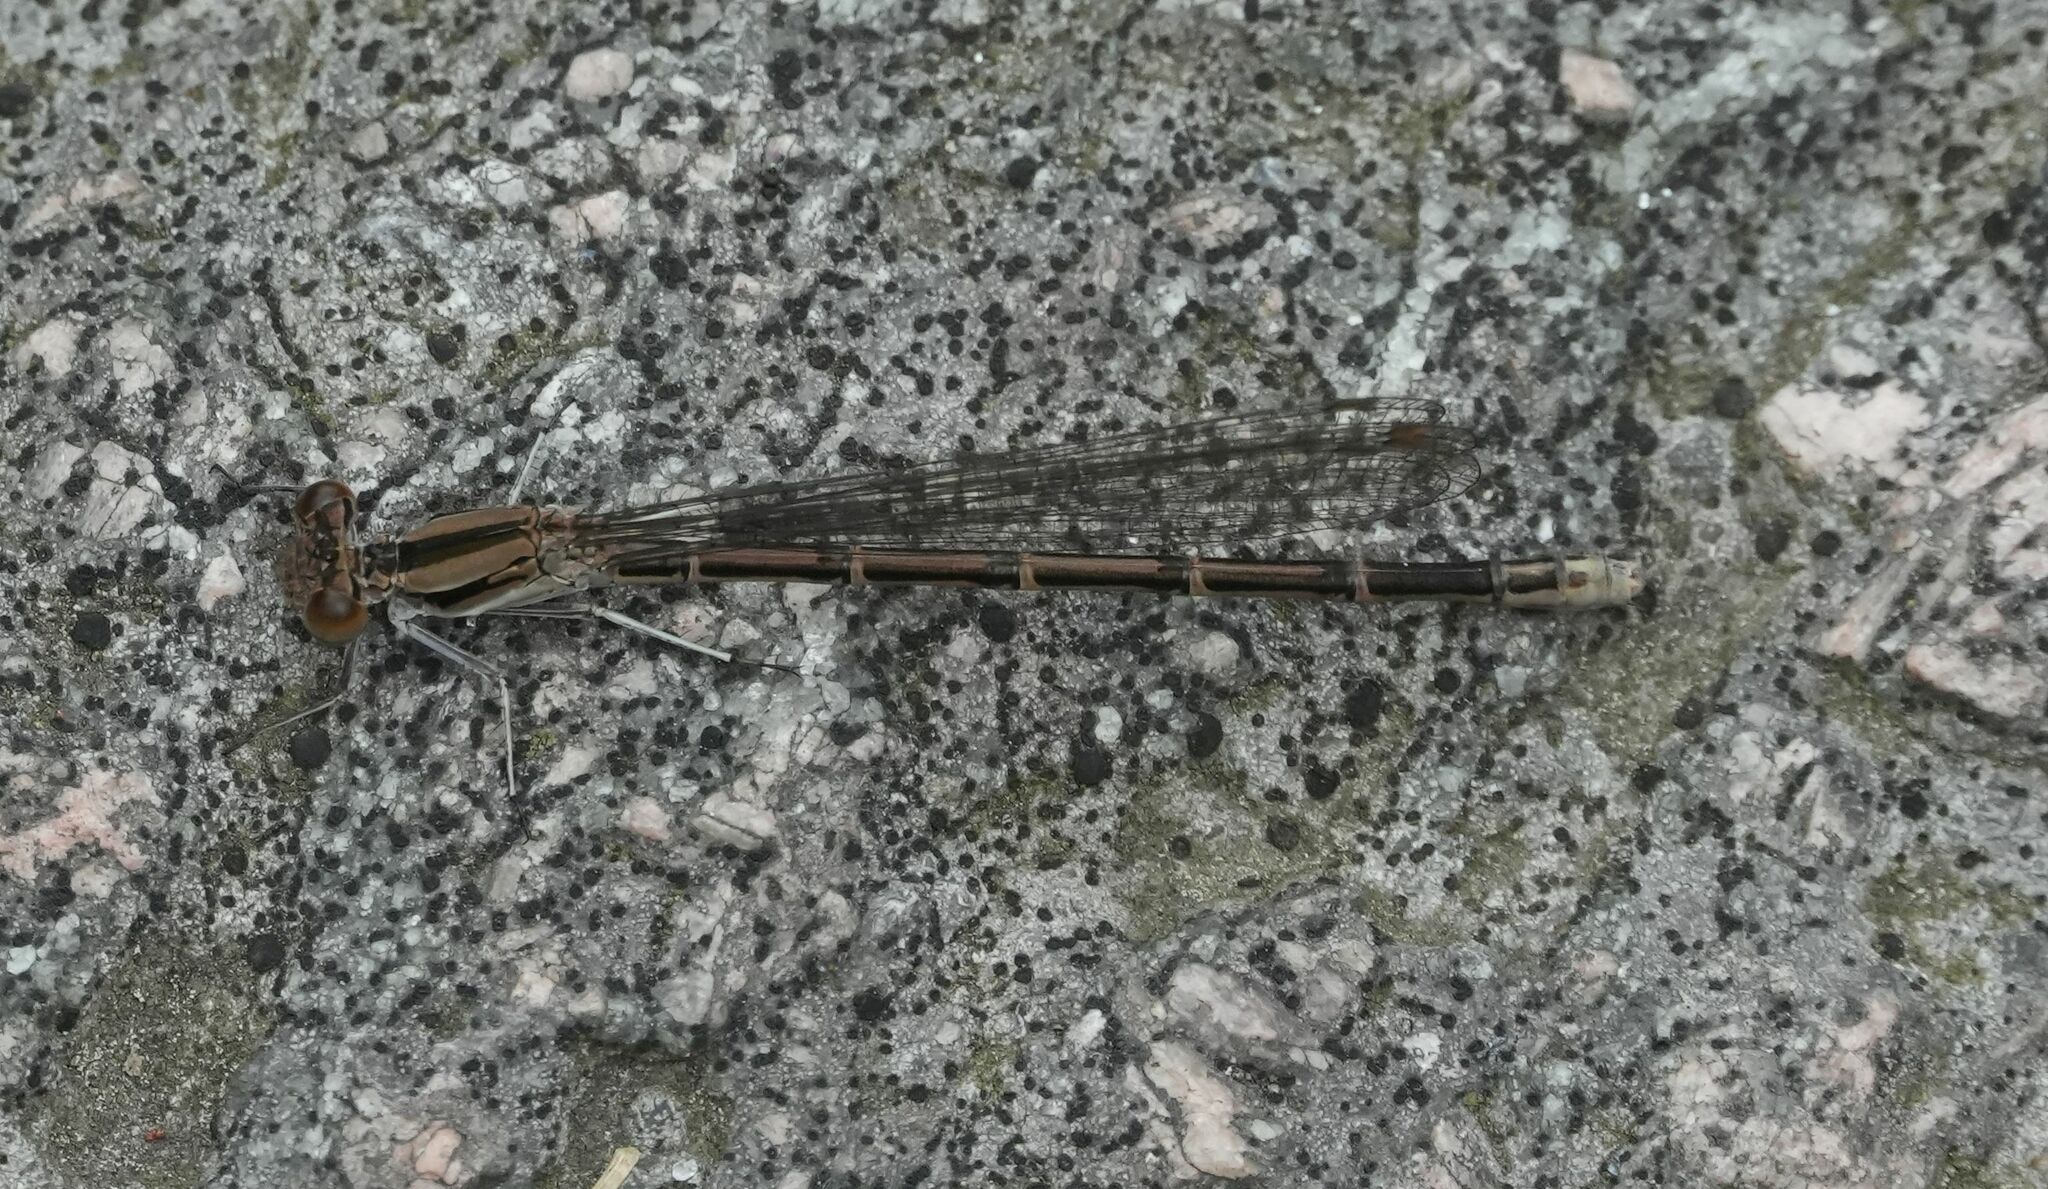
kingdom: Animalia
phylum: Arthropoda
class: Insecta
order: Odonata
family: Coenagrionidae
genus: Argia
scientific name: Argia fumipennis
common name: Variable dancer
